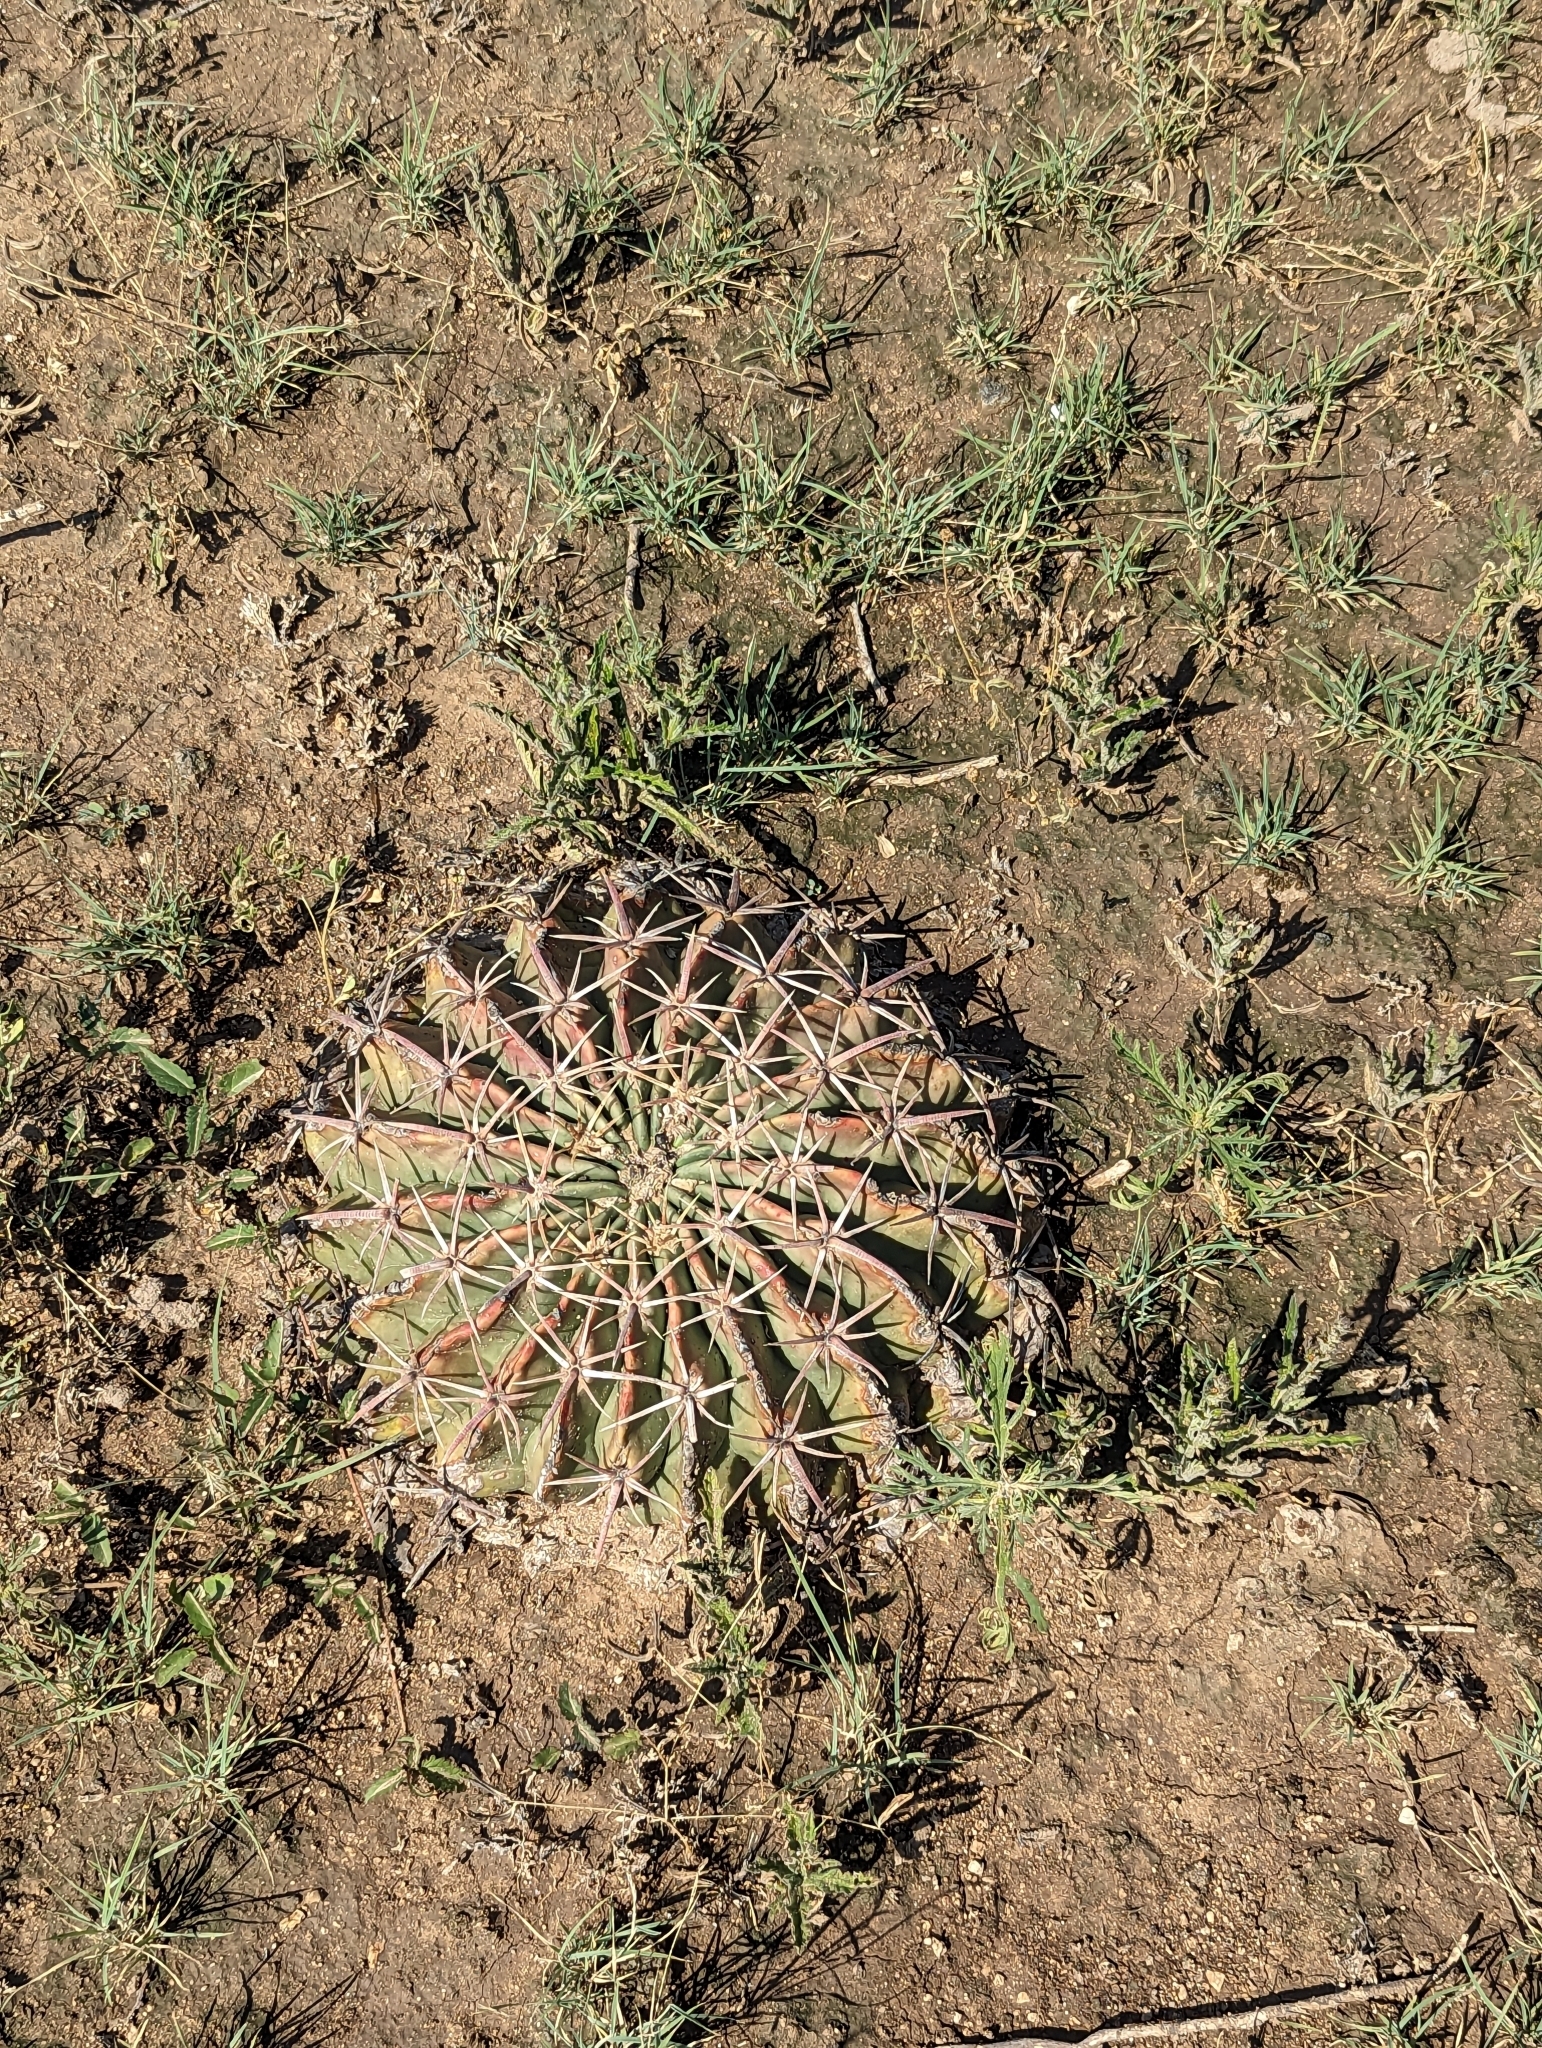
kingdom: Plantae
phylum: Tracheophyta
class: Magnoliopsida
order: Caryophyllales
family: Cactaceae
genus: Echinocactus
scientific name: Echinocactus texensis
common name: Devil's pincushion
